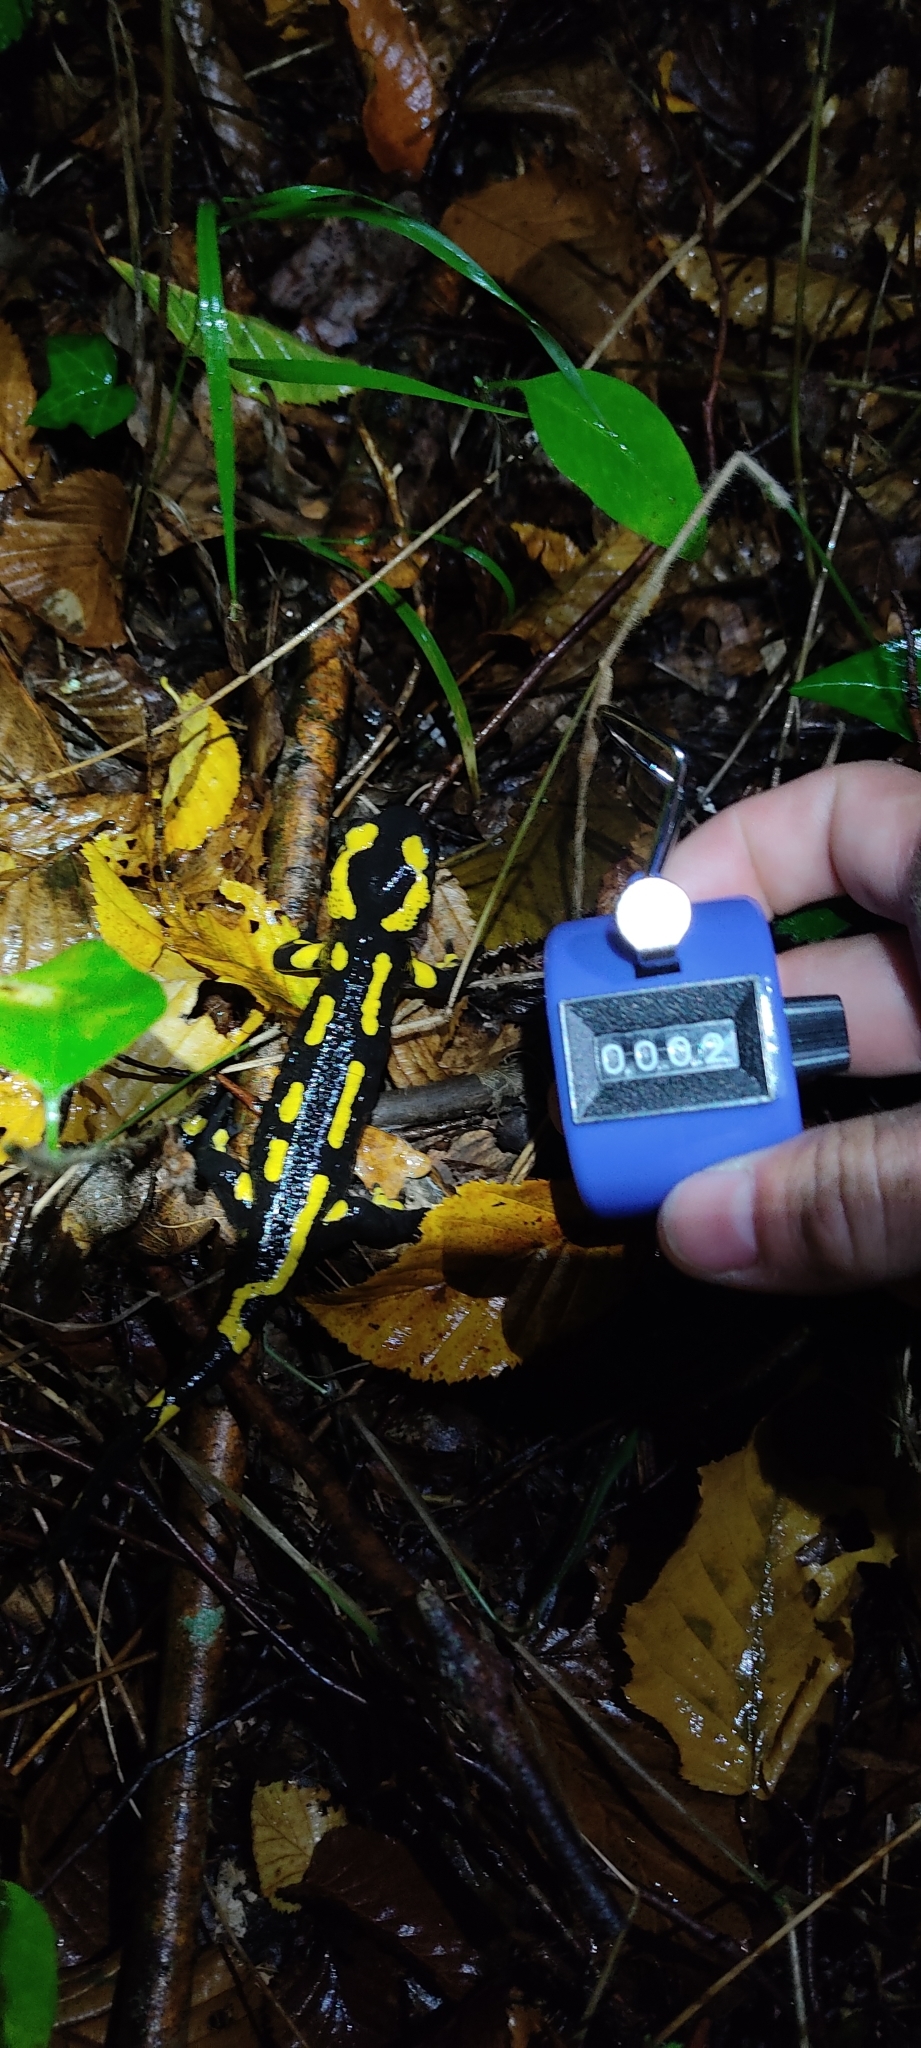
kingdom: Animalia
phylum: Chordata
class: Amphibia
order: Caudata
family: Salamandridae
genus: Salamandra
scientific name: Salamandra salamandra
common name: Fire salamander
